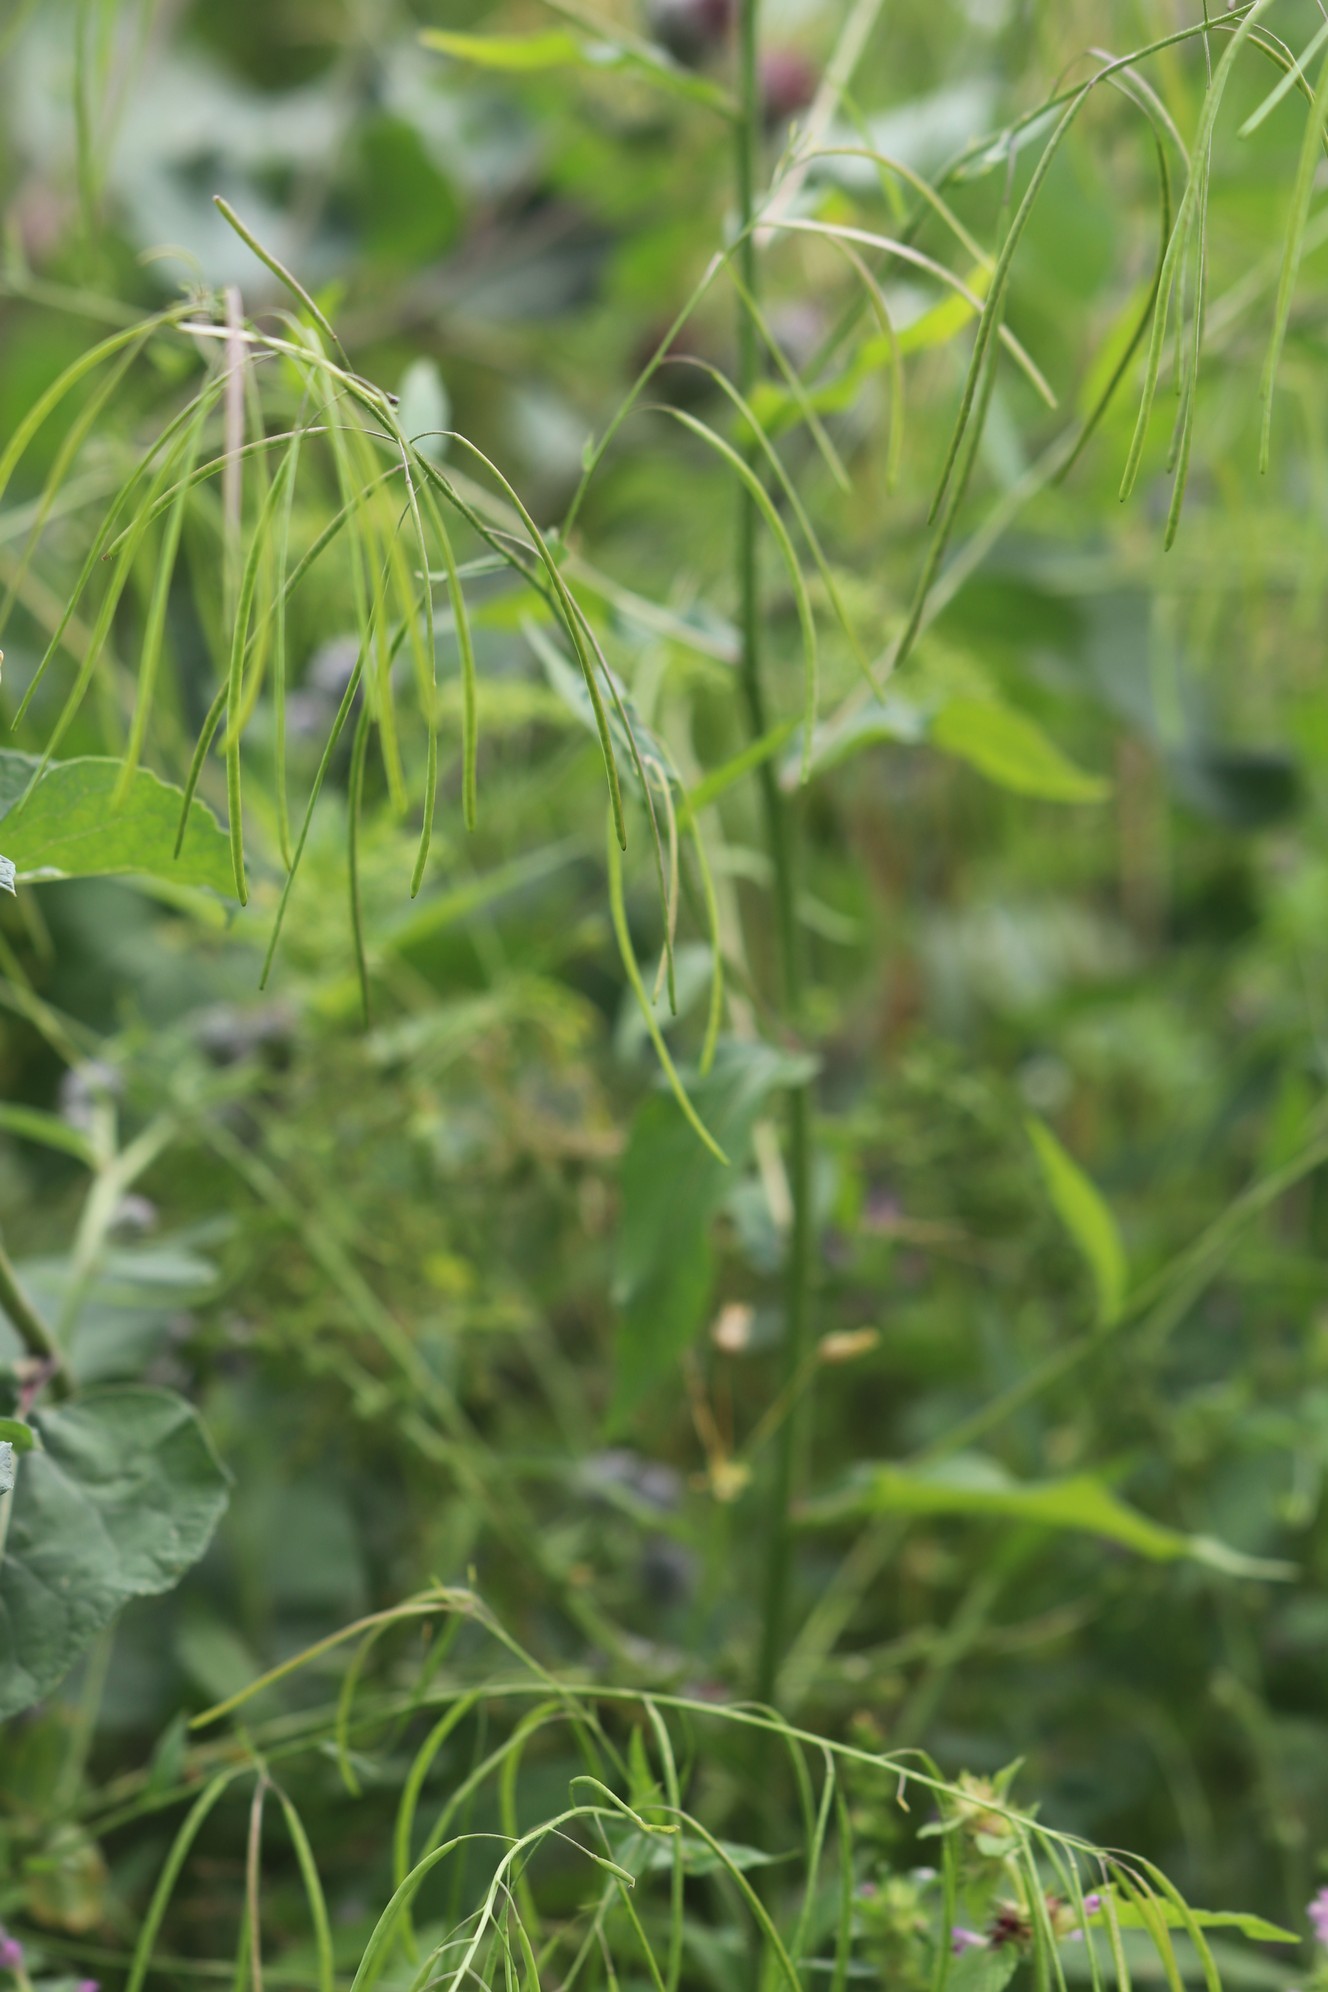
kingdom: Plantae
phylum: Tracheophyta
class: Magnoliopsida
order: Brassicales
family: Brassicaceae
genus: Catolobus
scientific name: Catolobus pendulus
